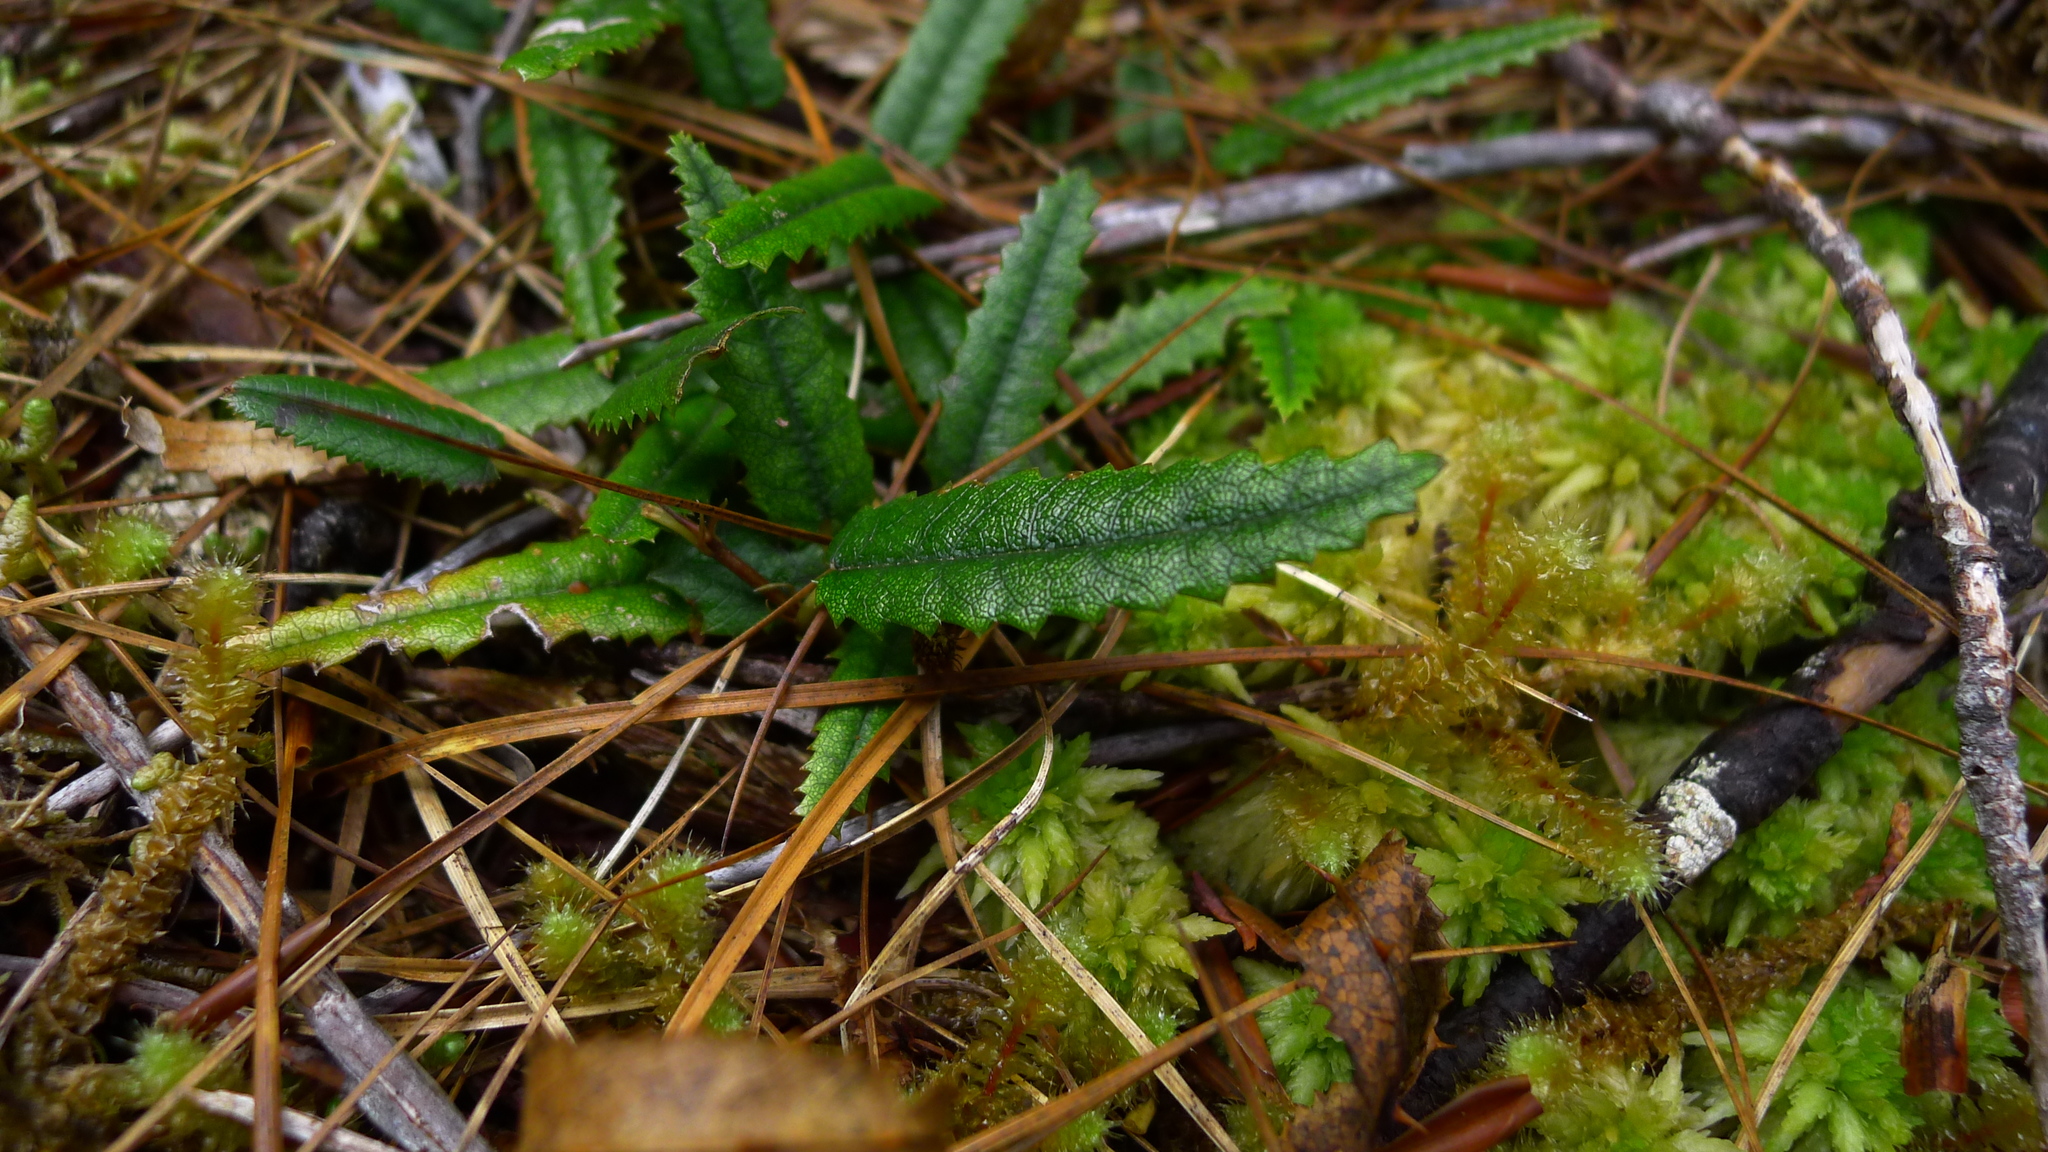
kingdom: Plantae
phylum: Tracheophyta
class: Magnoliopsida
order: Rosales
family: Rosaceae
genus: Rubus
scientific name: Rubus parvus
